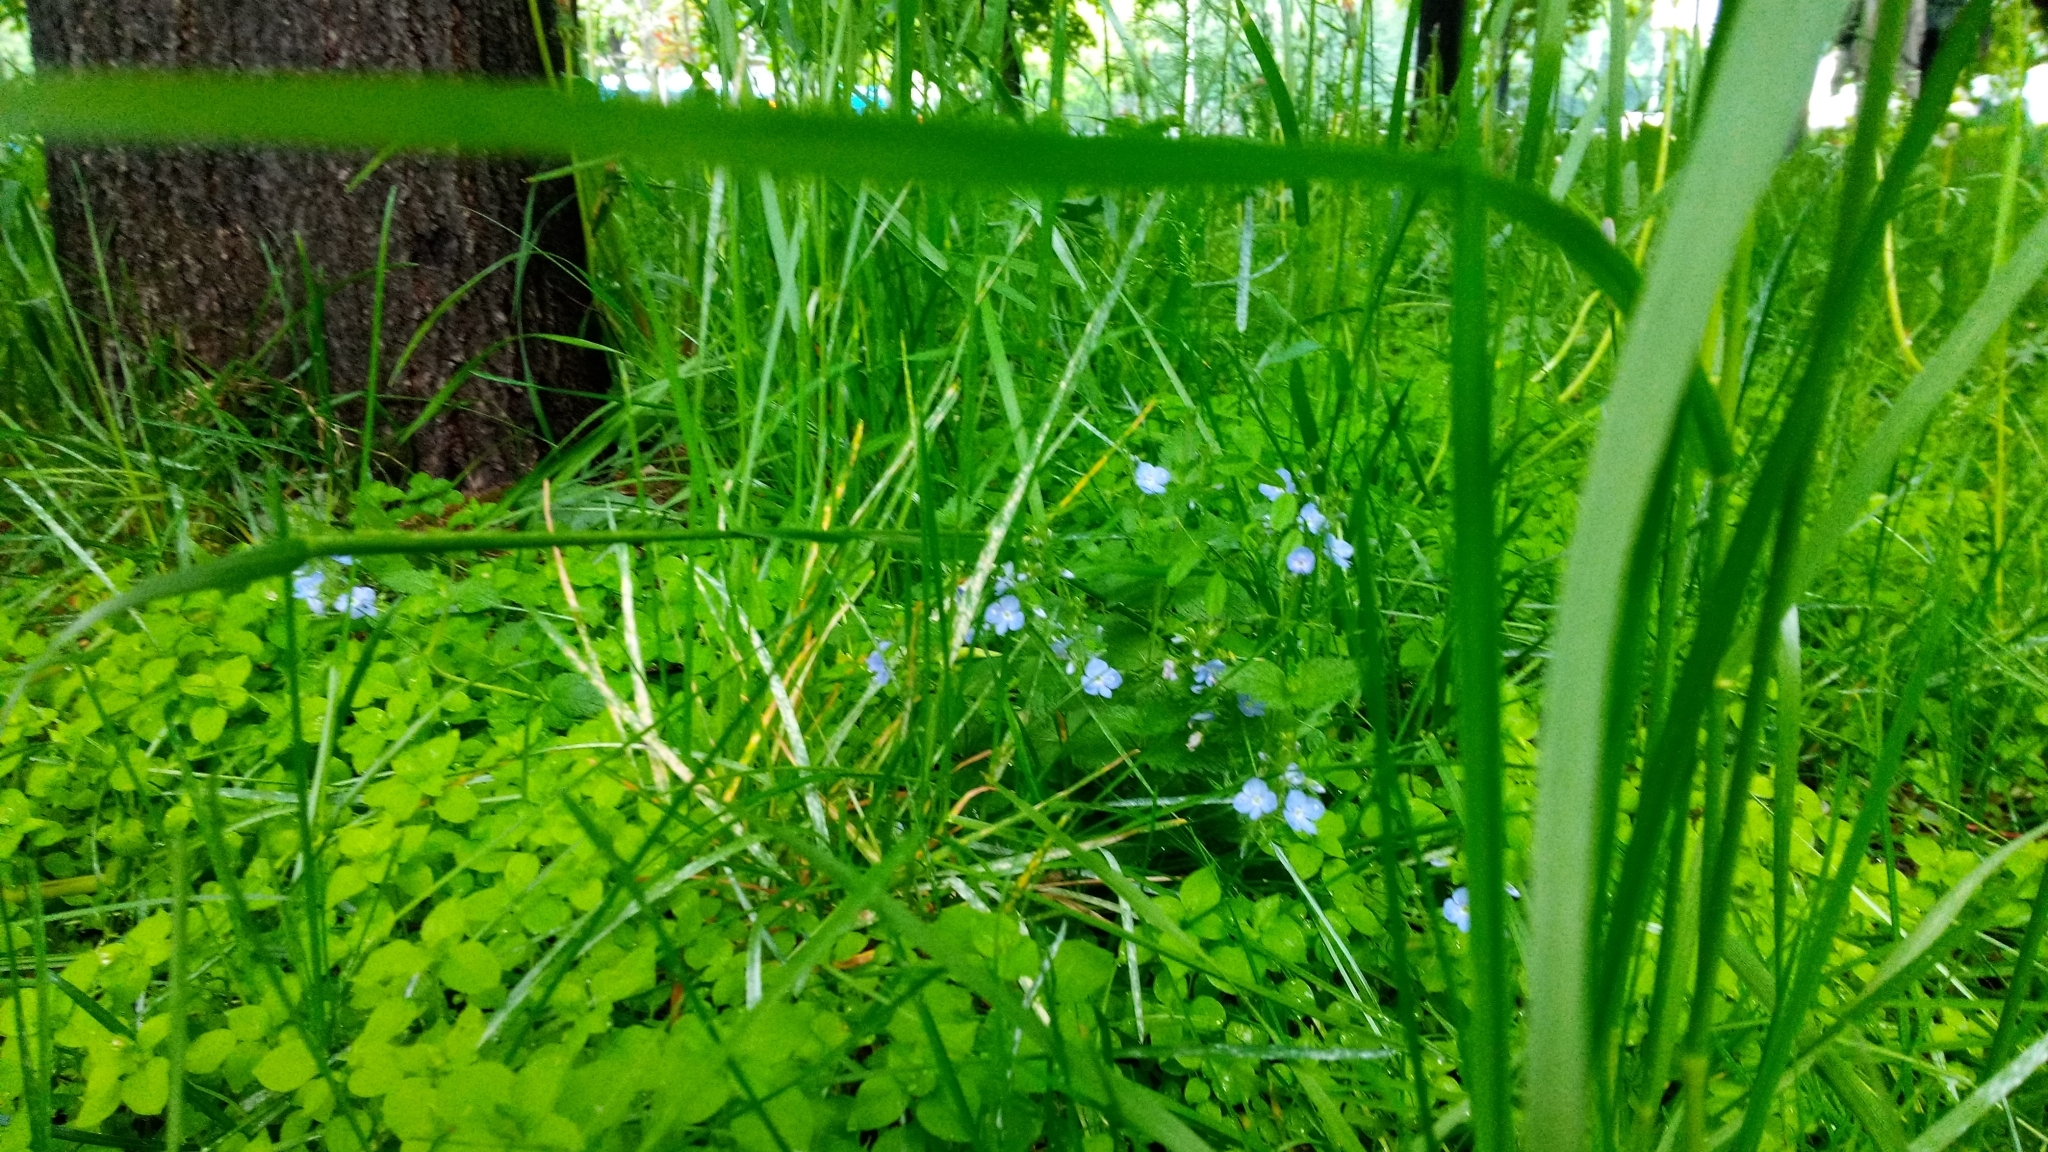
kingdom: Plantae
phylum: Tracheophyta
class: Magnoliopsida
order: Lamiales
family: Plantaginaceae
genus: Veronica
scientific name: Veronica chamaedrys
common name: Germander speedwell
